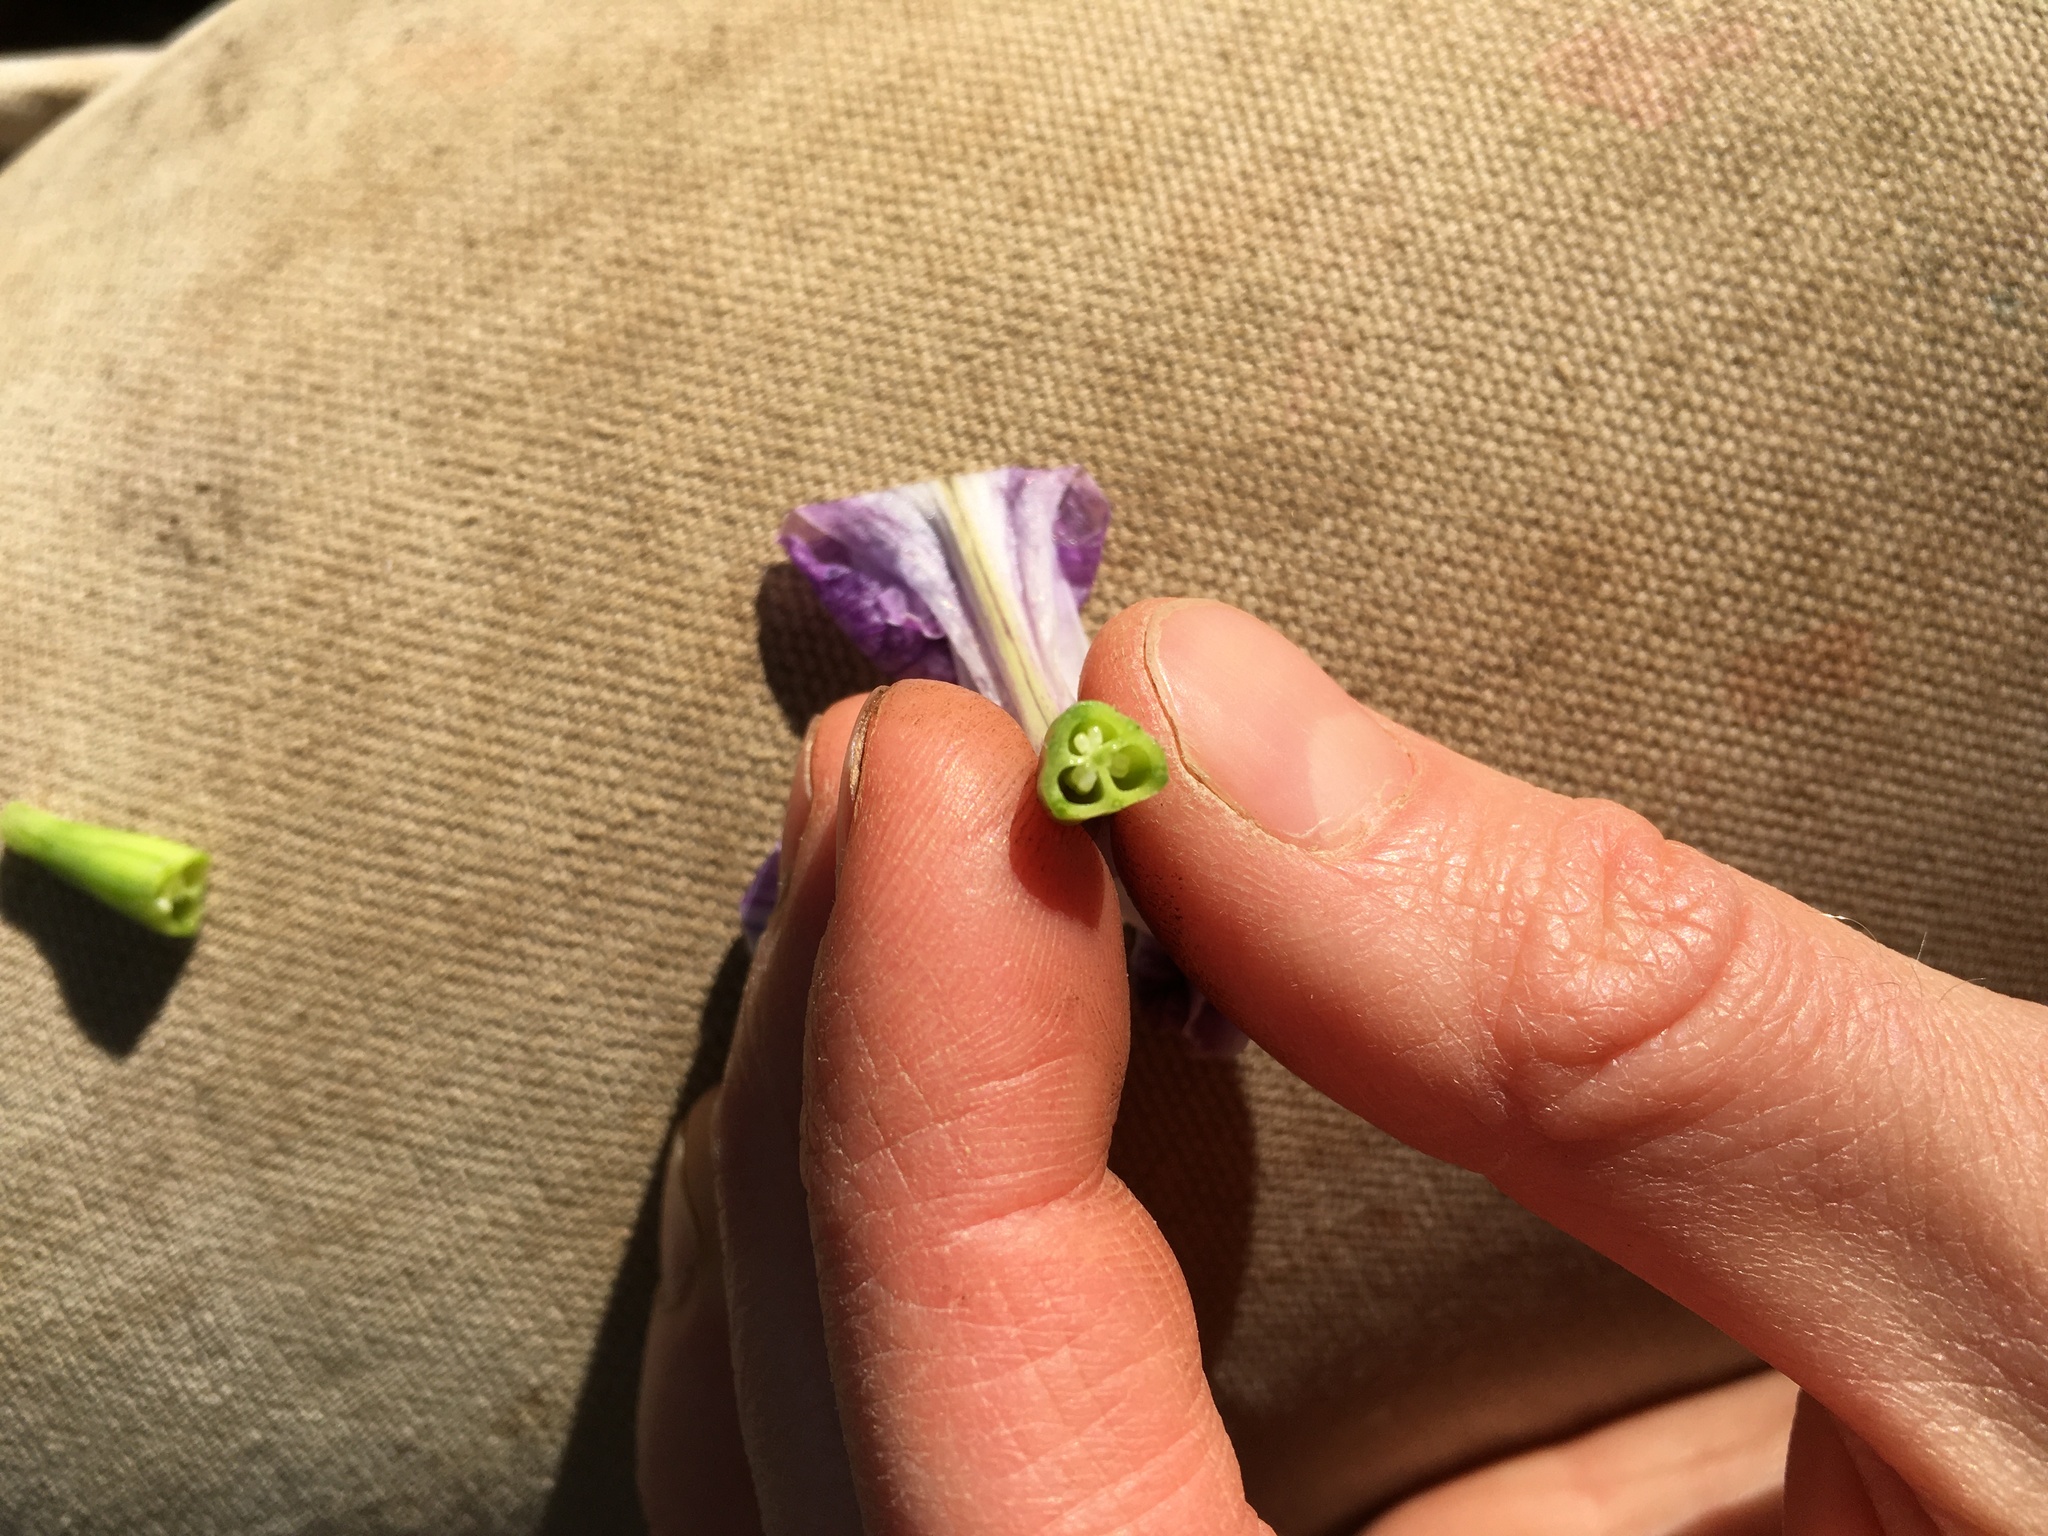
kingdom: Plantae
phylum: Tracheophyta
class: Liliopsida
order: Asparagales
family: Iridaceae
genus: Iris
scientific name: Iris tenax
